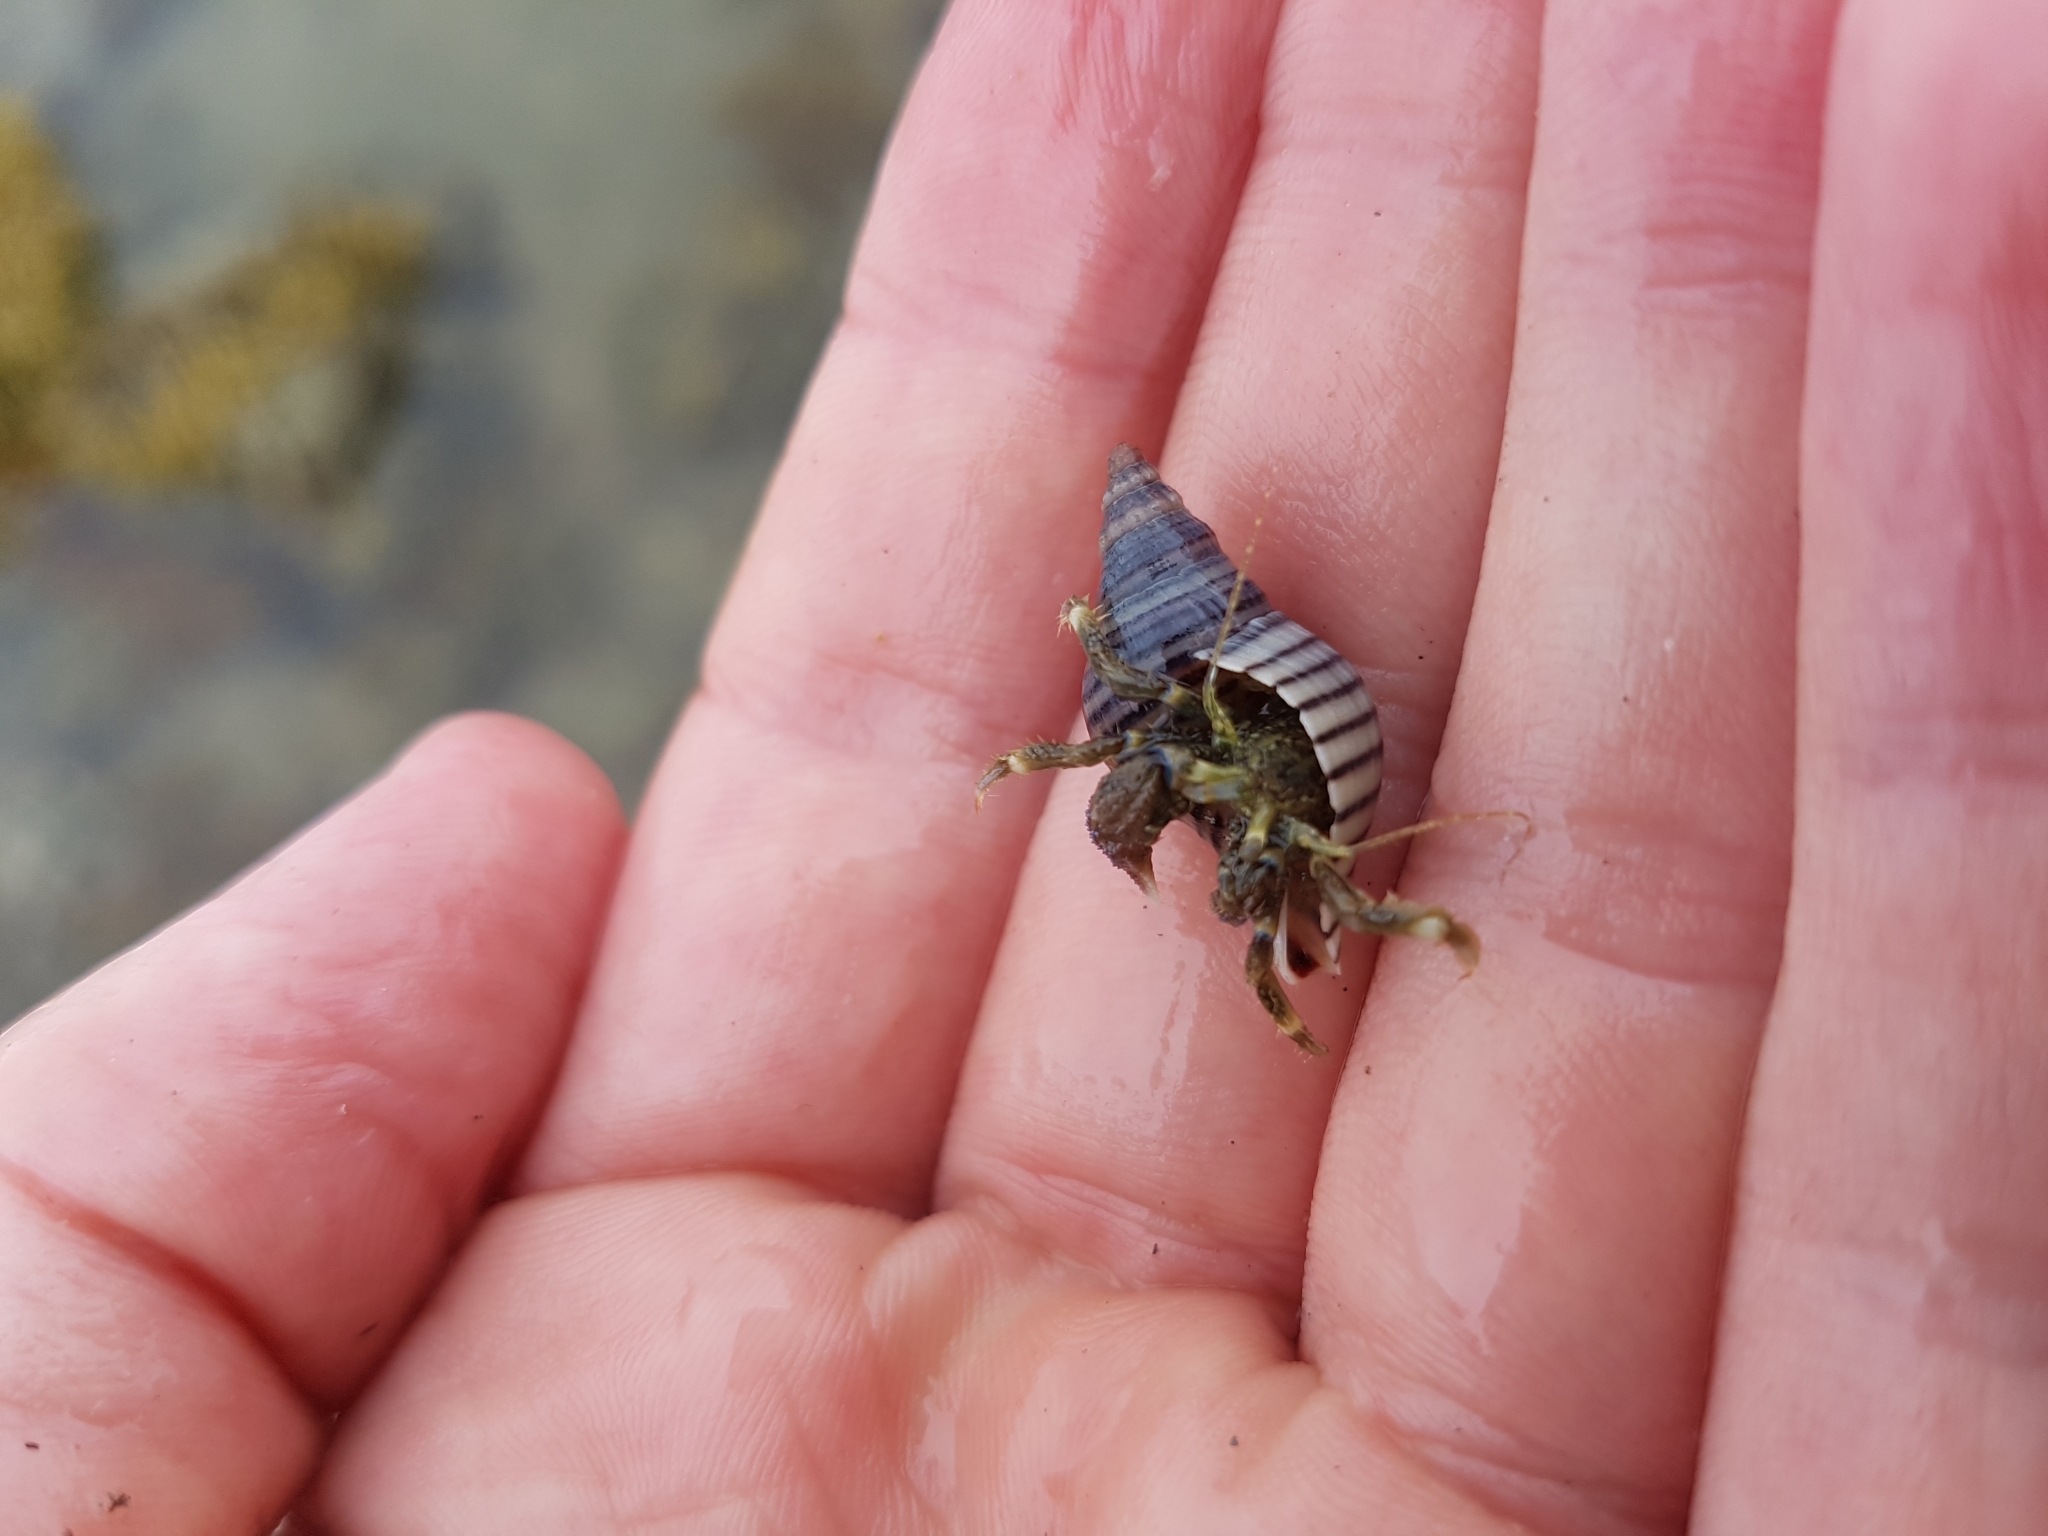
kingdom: Animalia
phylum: Arthropoda
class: Malacostraca
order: Decapoda
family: Paguridae
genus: Pagurus
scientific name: Pagurus novizealandiae
